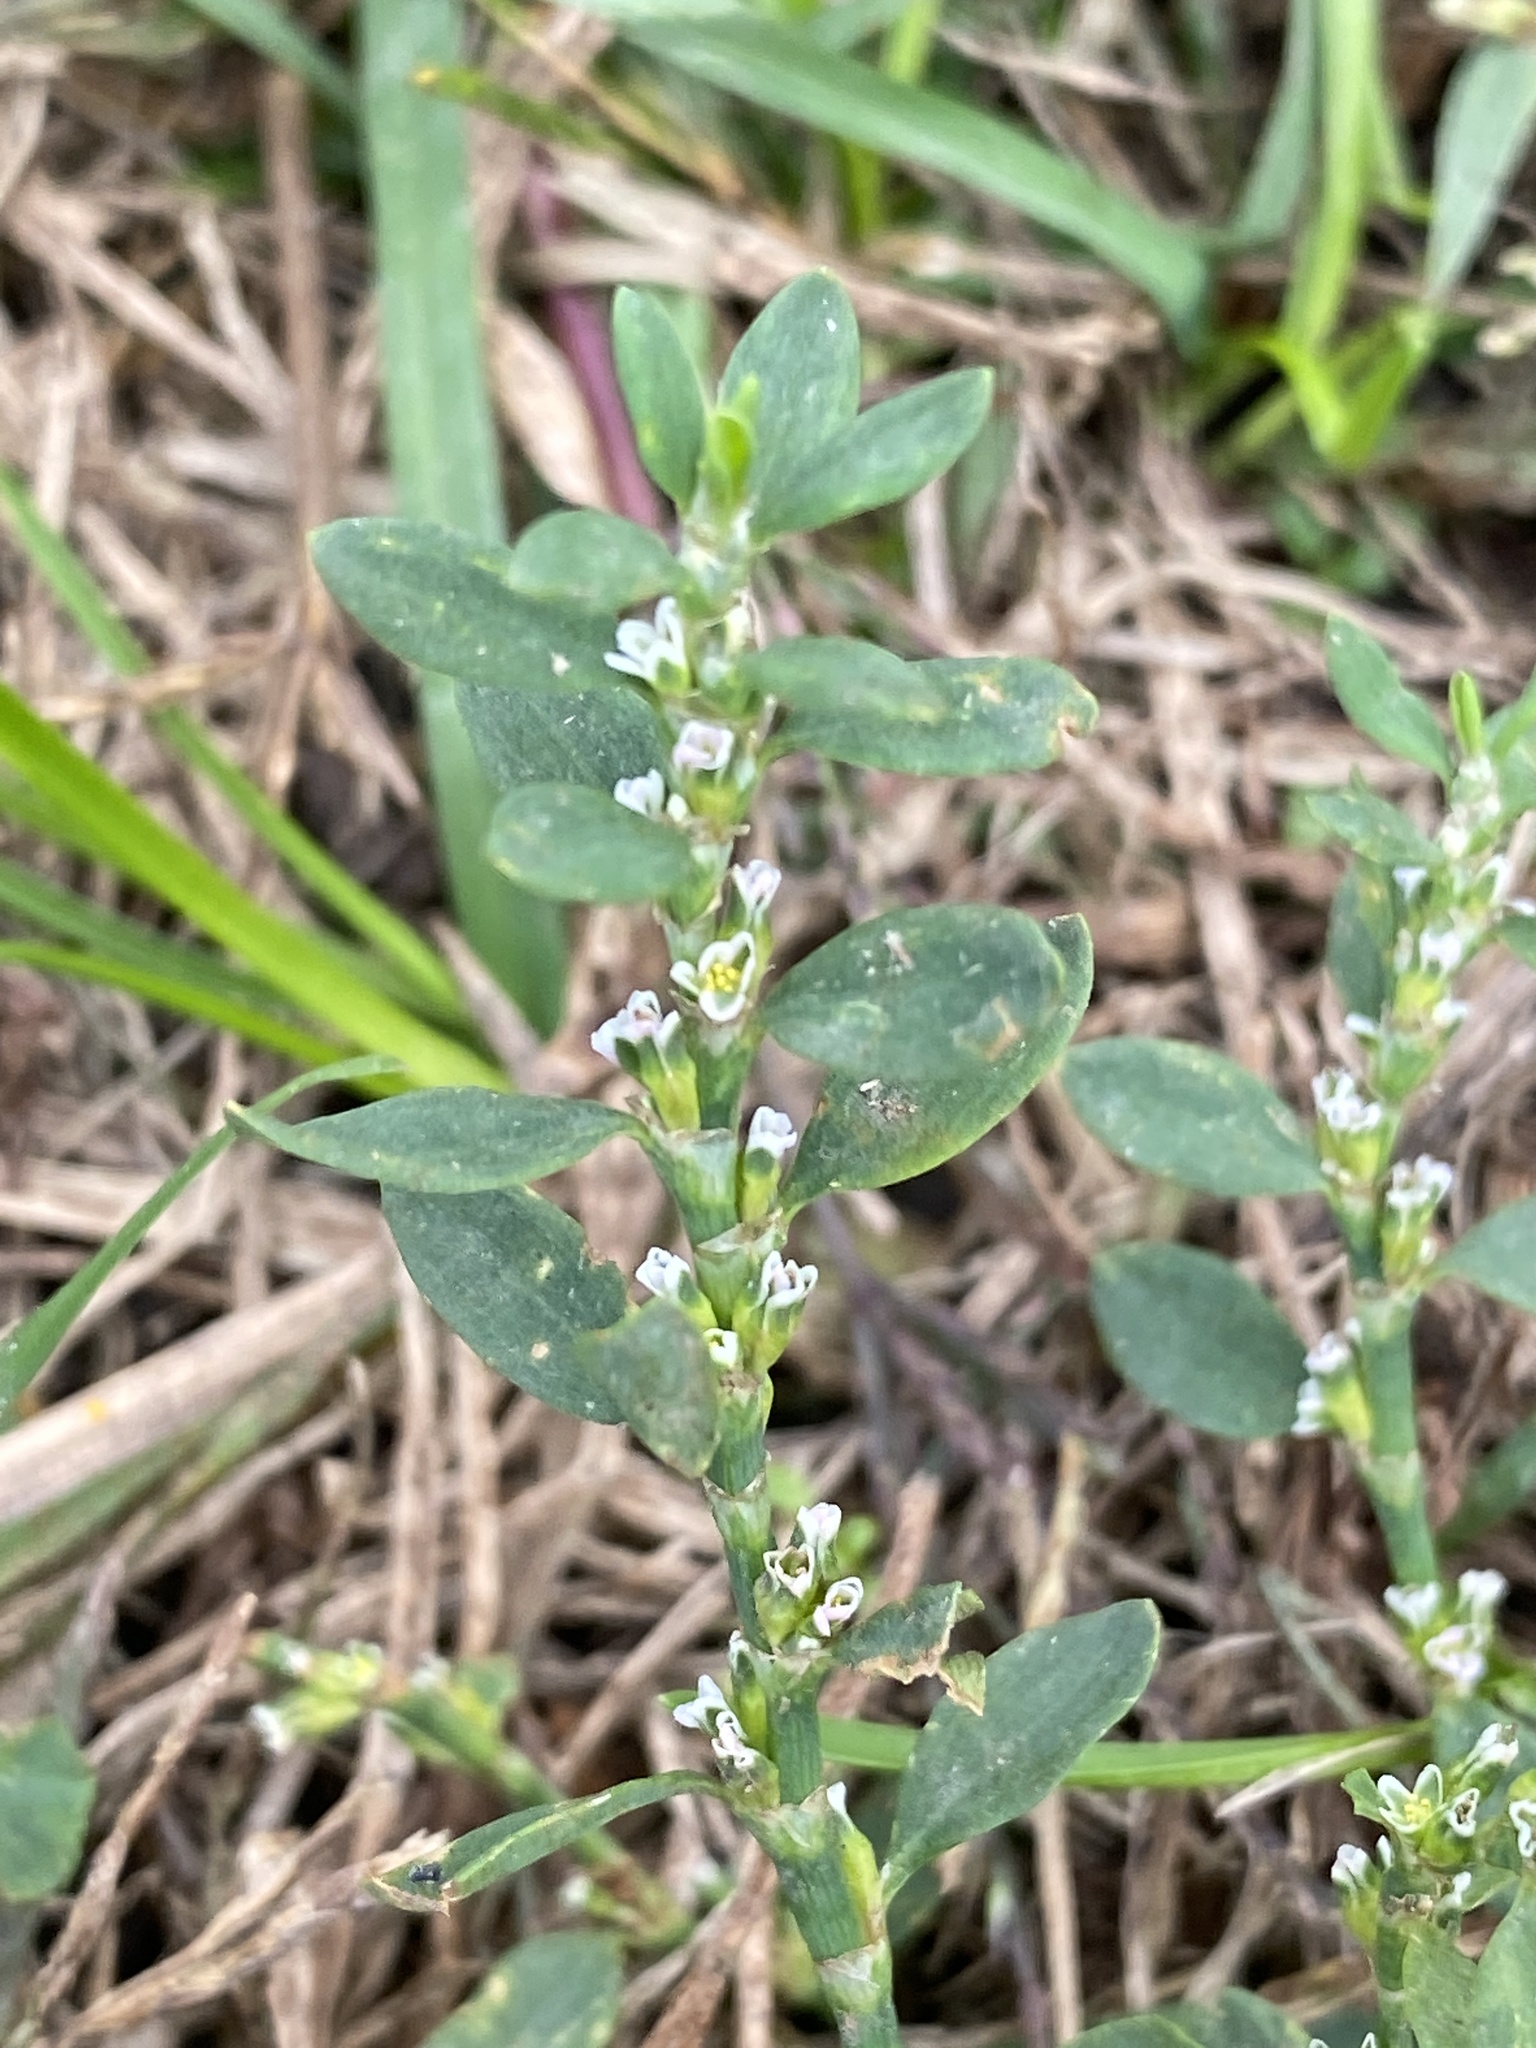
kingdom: Plantae
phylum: Tracheophyta
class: Magnoliopsida
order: Caryophyllales
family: Polygonaceae
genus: Polygonum
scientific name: Polygonum aviculare
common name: Prostrate knotweed
